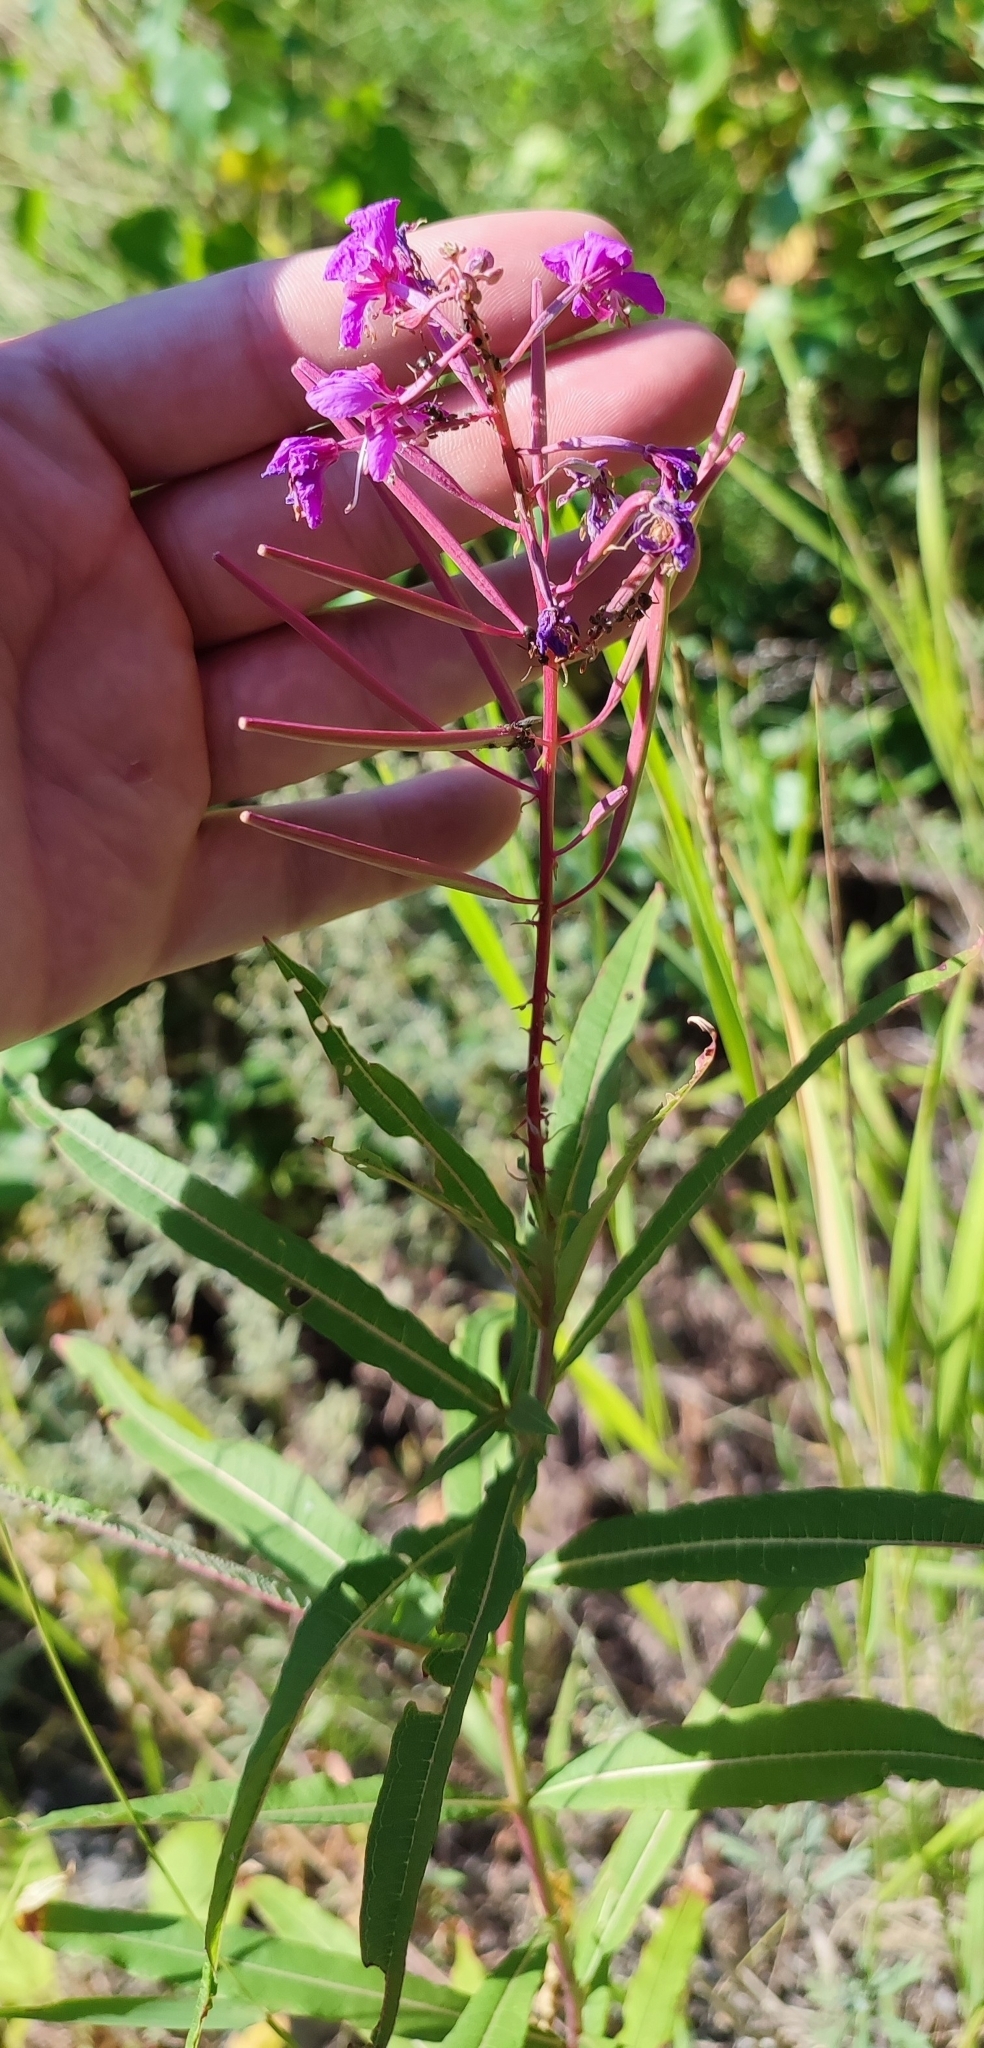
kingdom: Plantae
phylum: Tracheophyta
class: Magnoliopsida
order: Myrtales
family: Onagraceae
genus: Chamaenerion
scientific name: Chamaenerion angustifolium
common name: Fireweed
